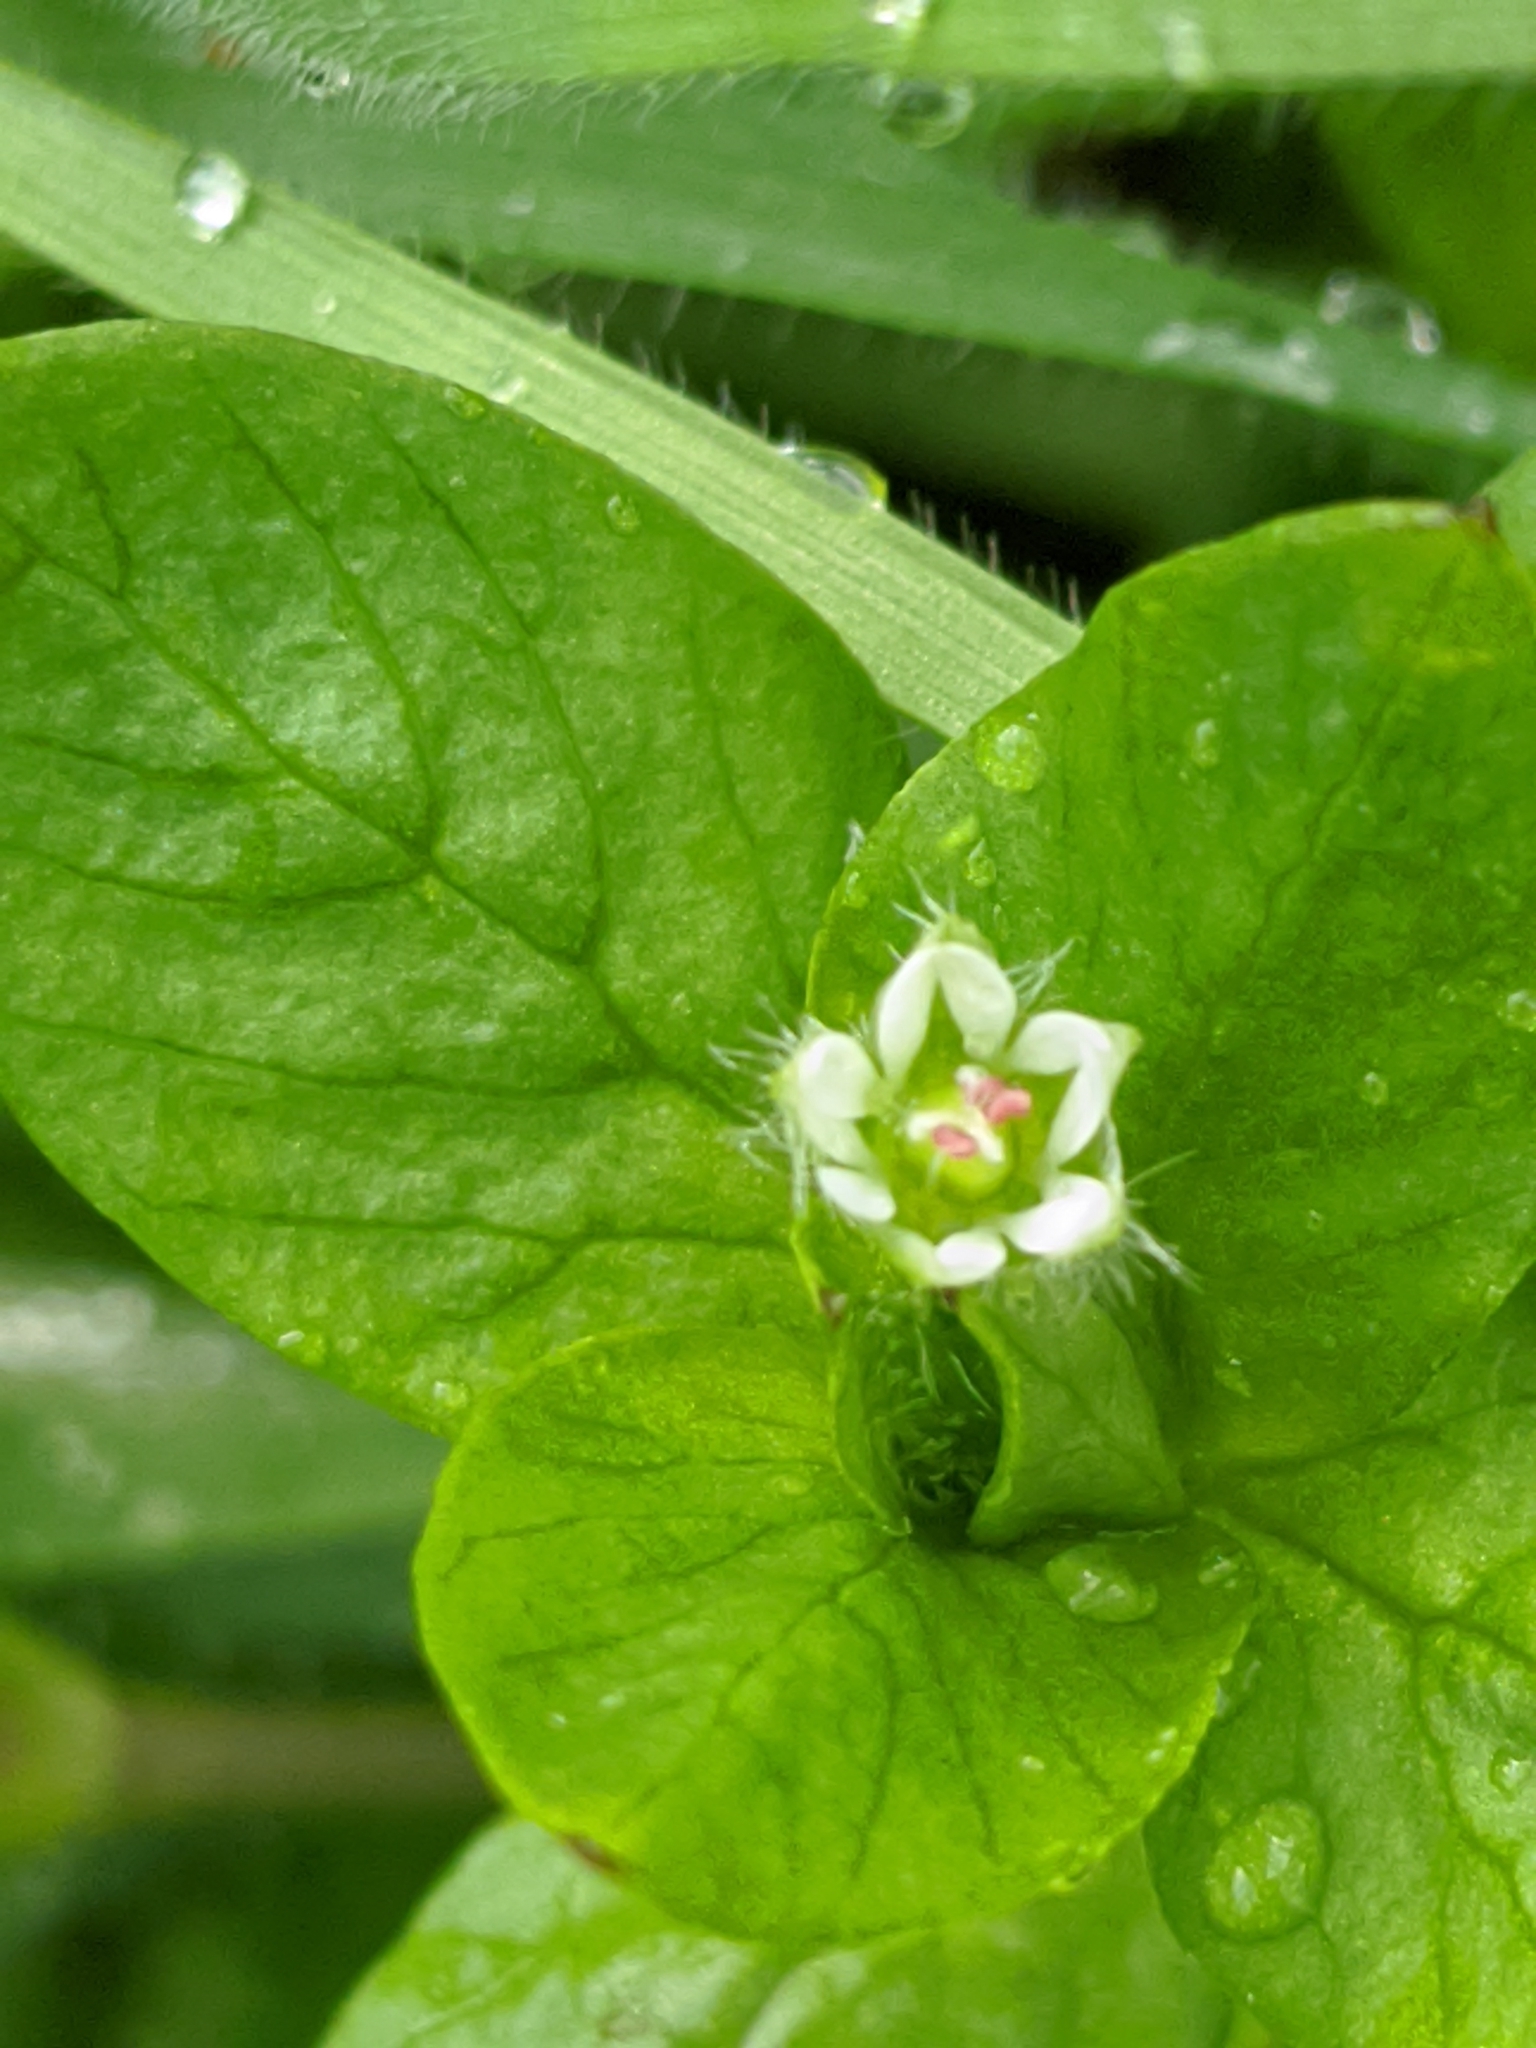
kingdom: Plantae
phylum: Tracheophyta
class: Magnoliopsida
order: Caryophyllales
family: Caryophyllaceae
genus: Stellaria
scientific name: Stellaria media
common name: Common chickweed
